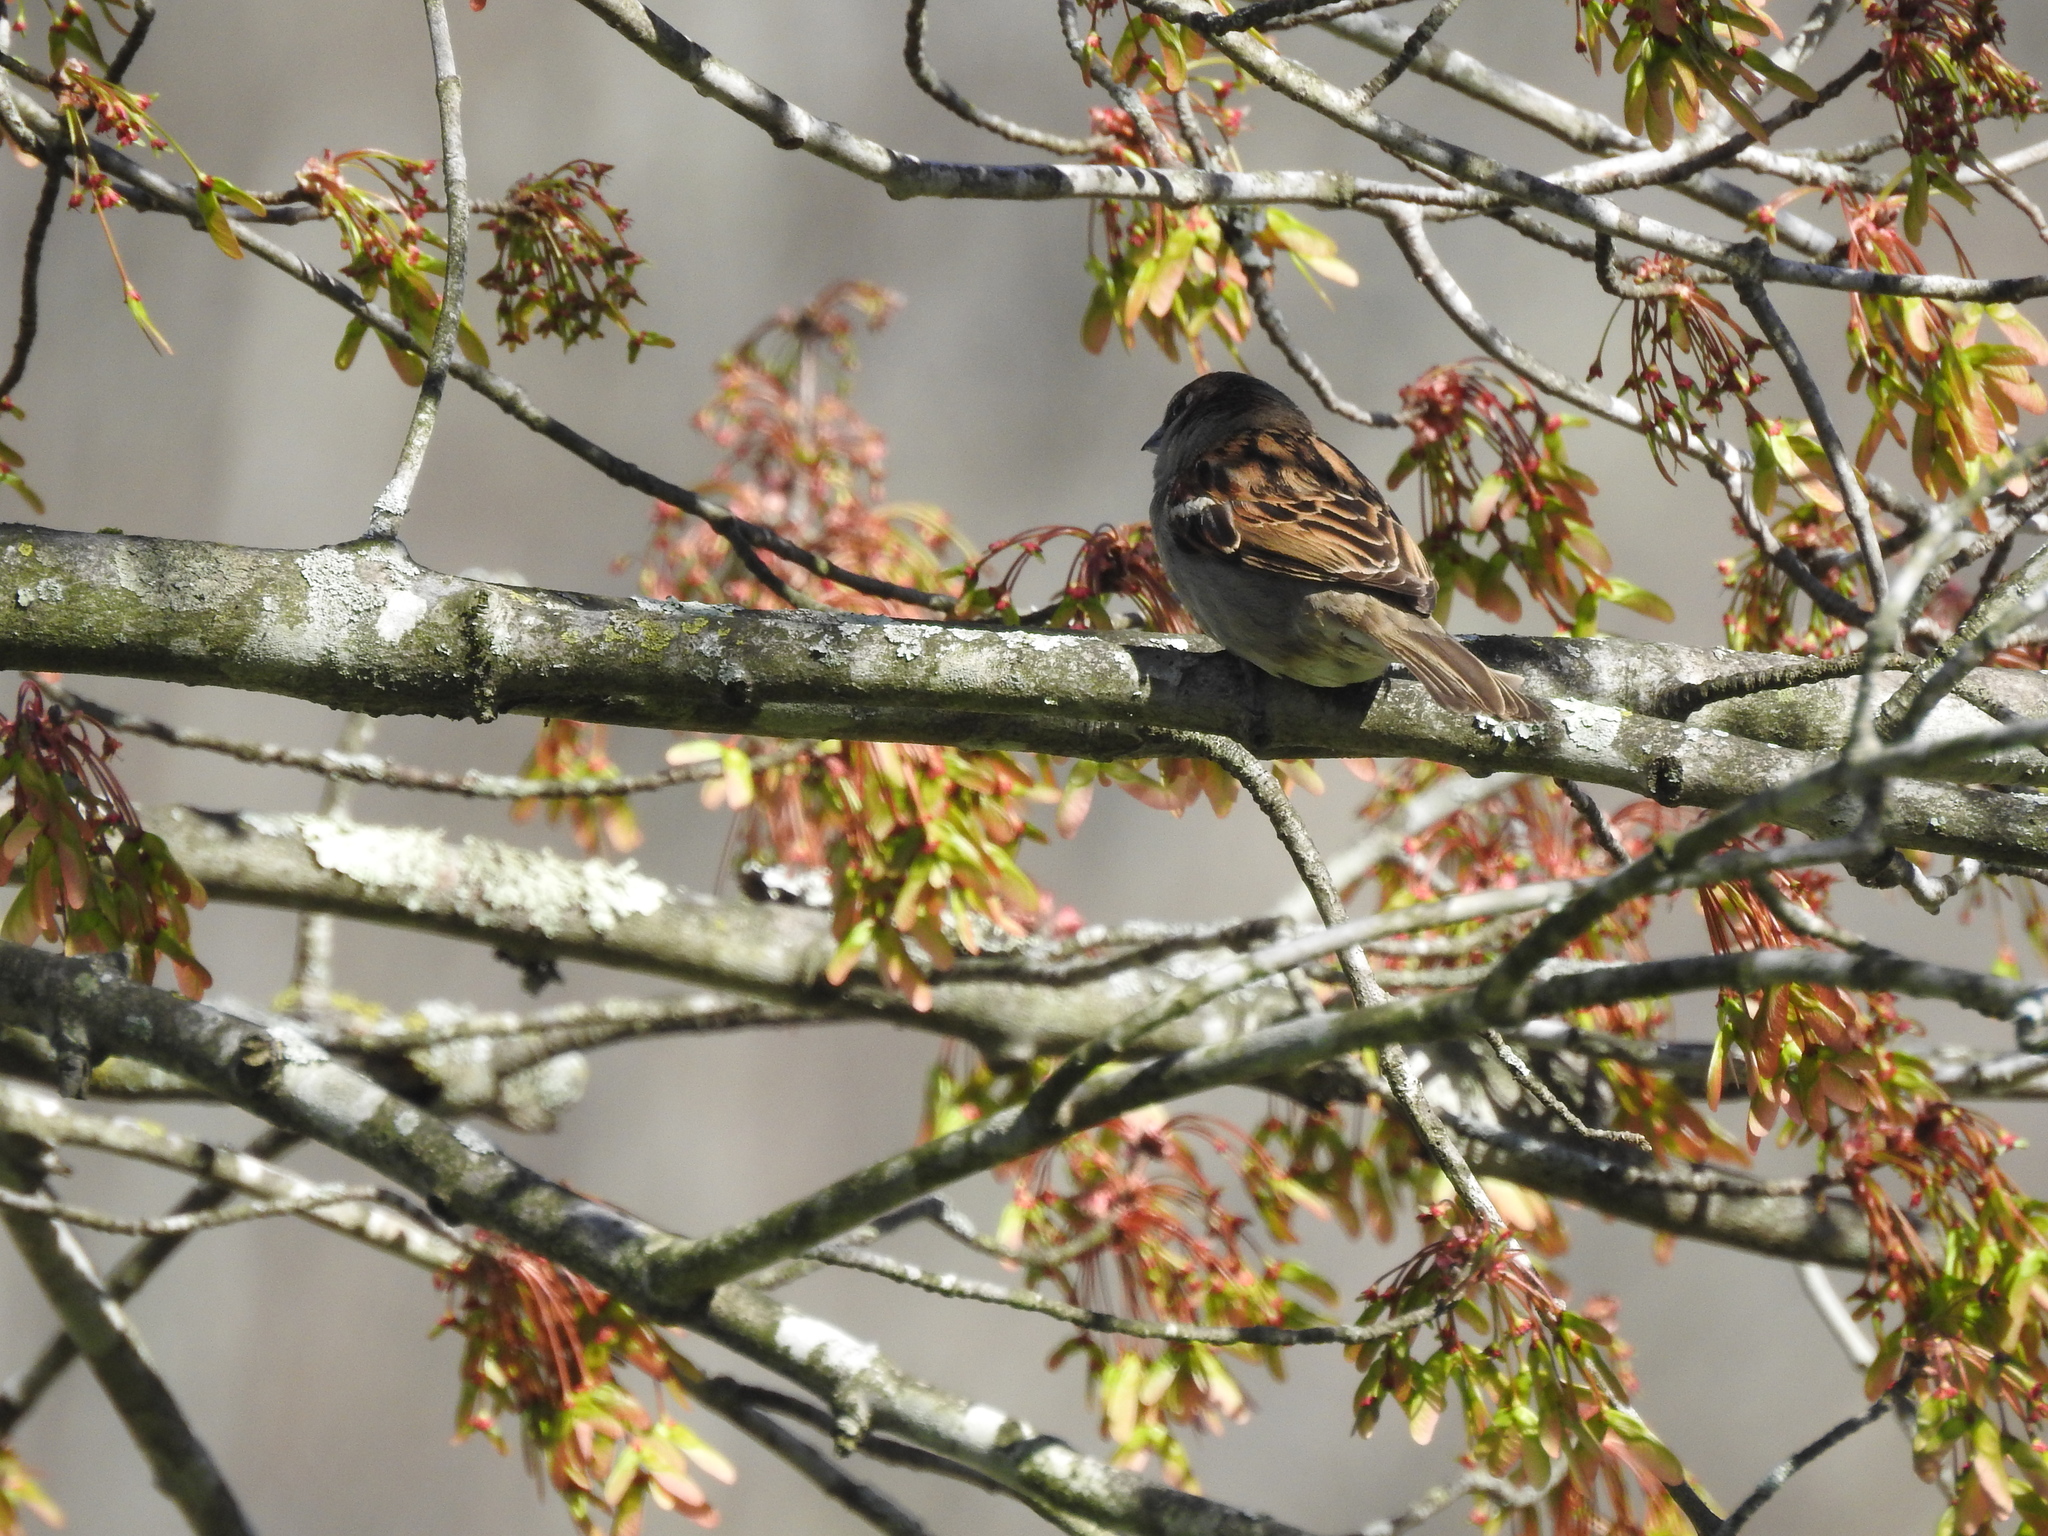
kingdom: Animalia
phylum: Chordata
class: Aves
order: Passeriformes
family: Passeridae
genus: Passer
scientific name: Passer domesticus
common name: House sparrow
